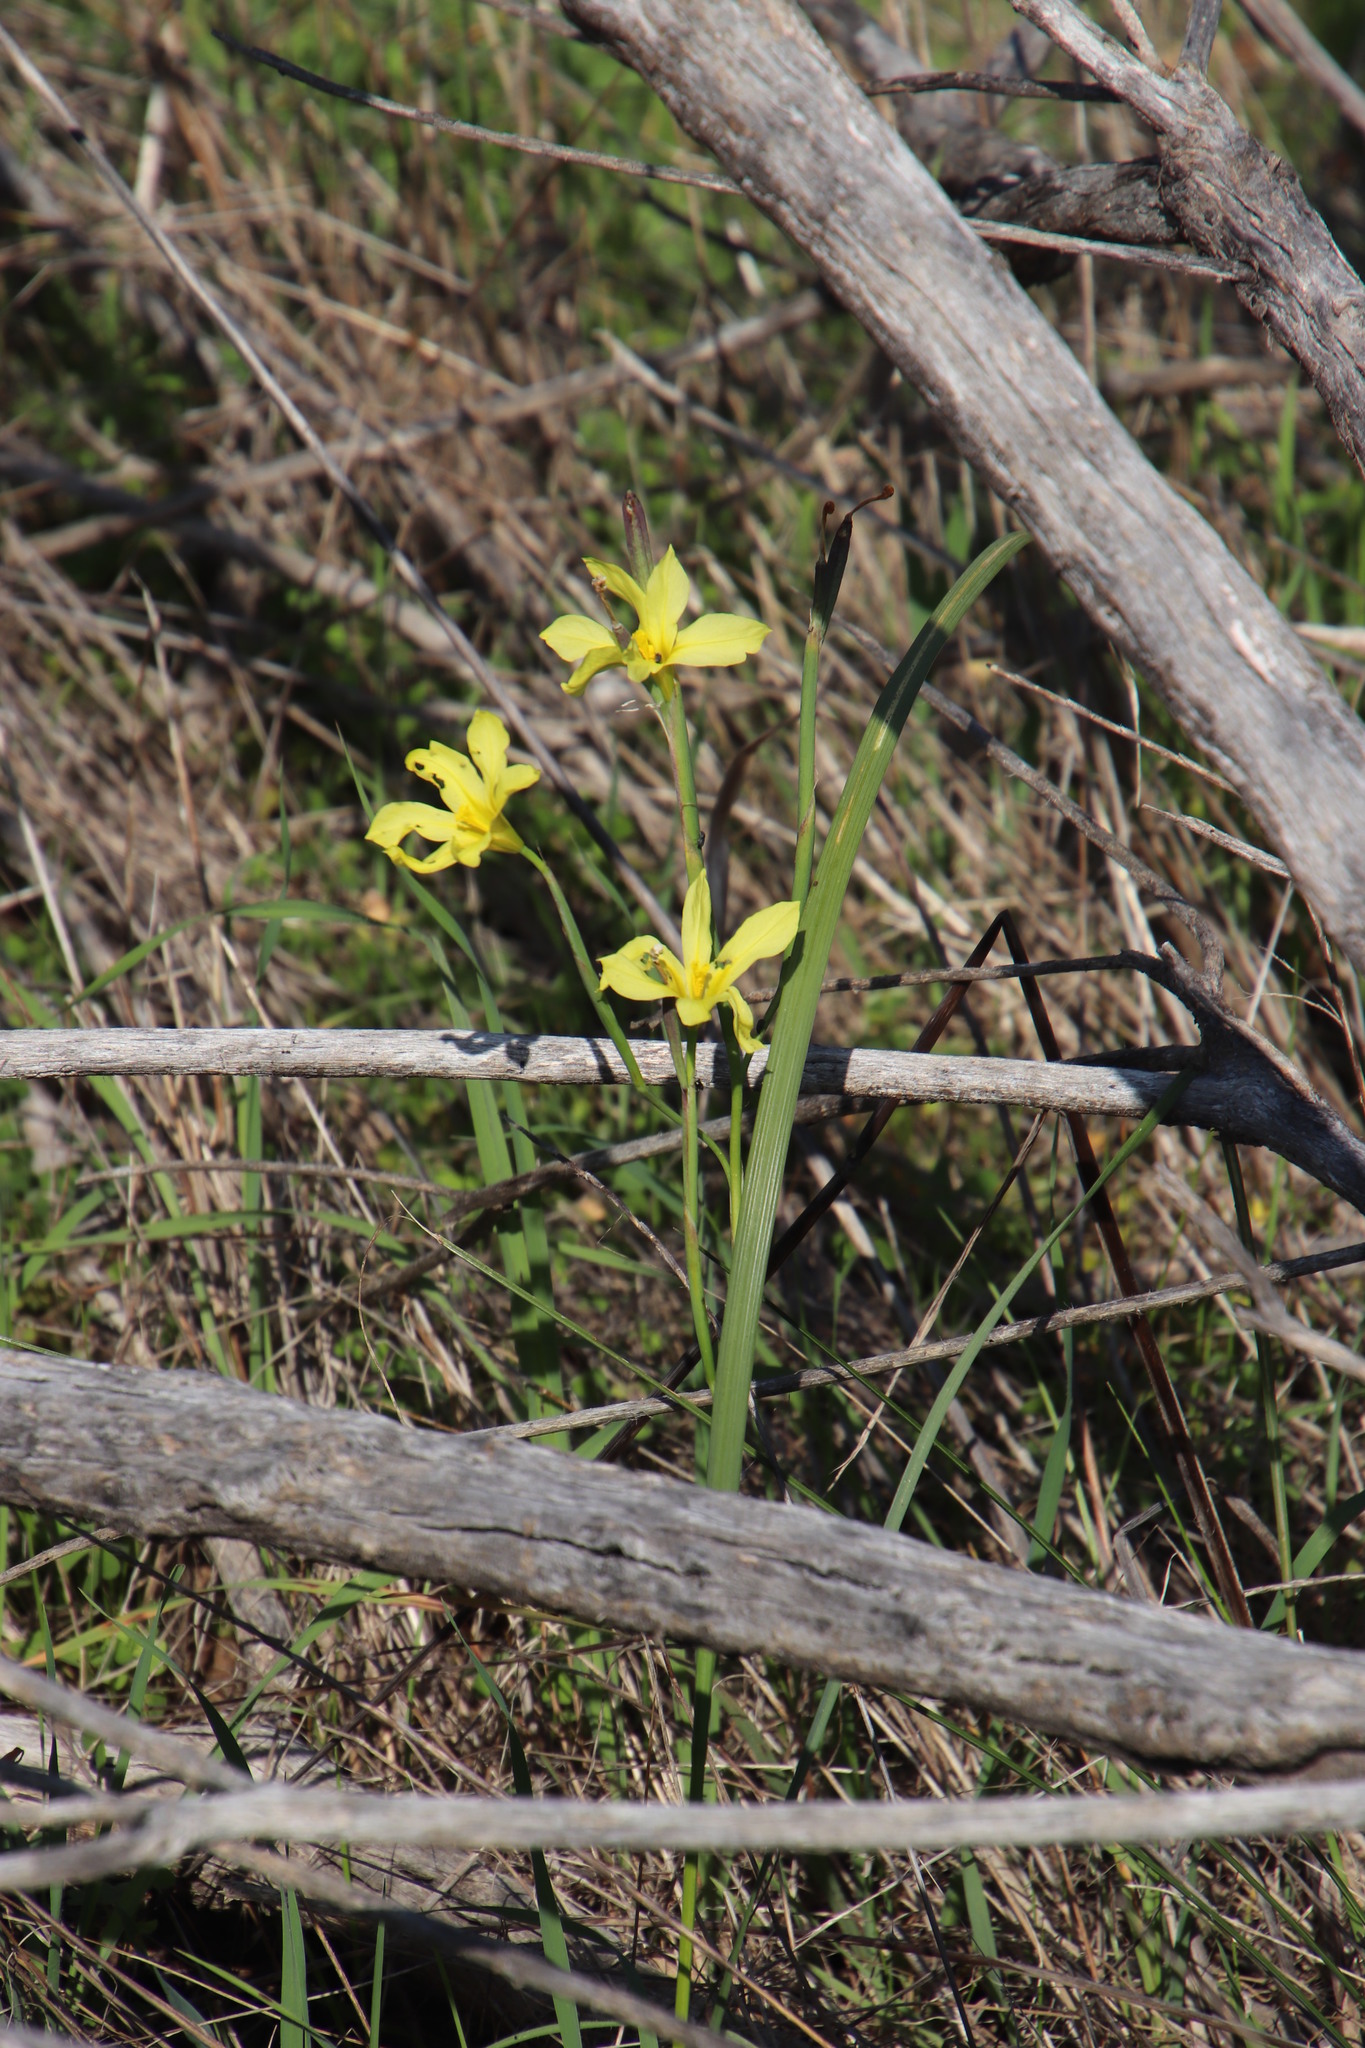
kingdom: Plantae
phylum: Tracheophyta
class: Liliopsida
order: Asparagales
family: Iridaceae
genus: Moraea
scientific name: Moraea collina
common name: Cape-tulip
